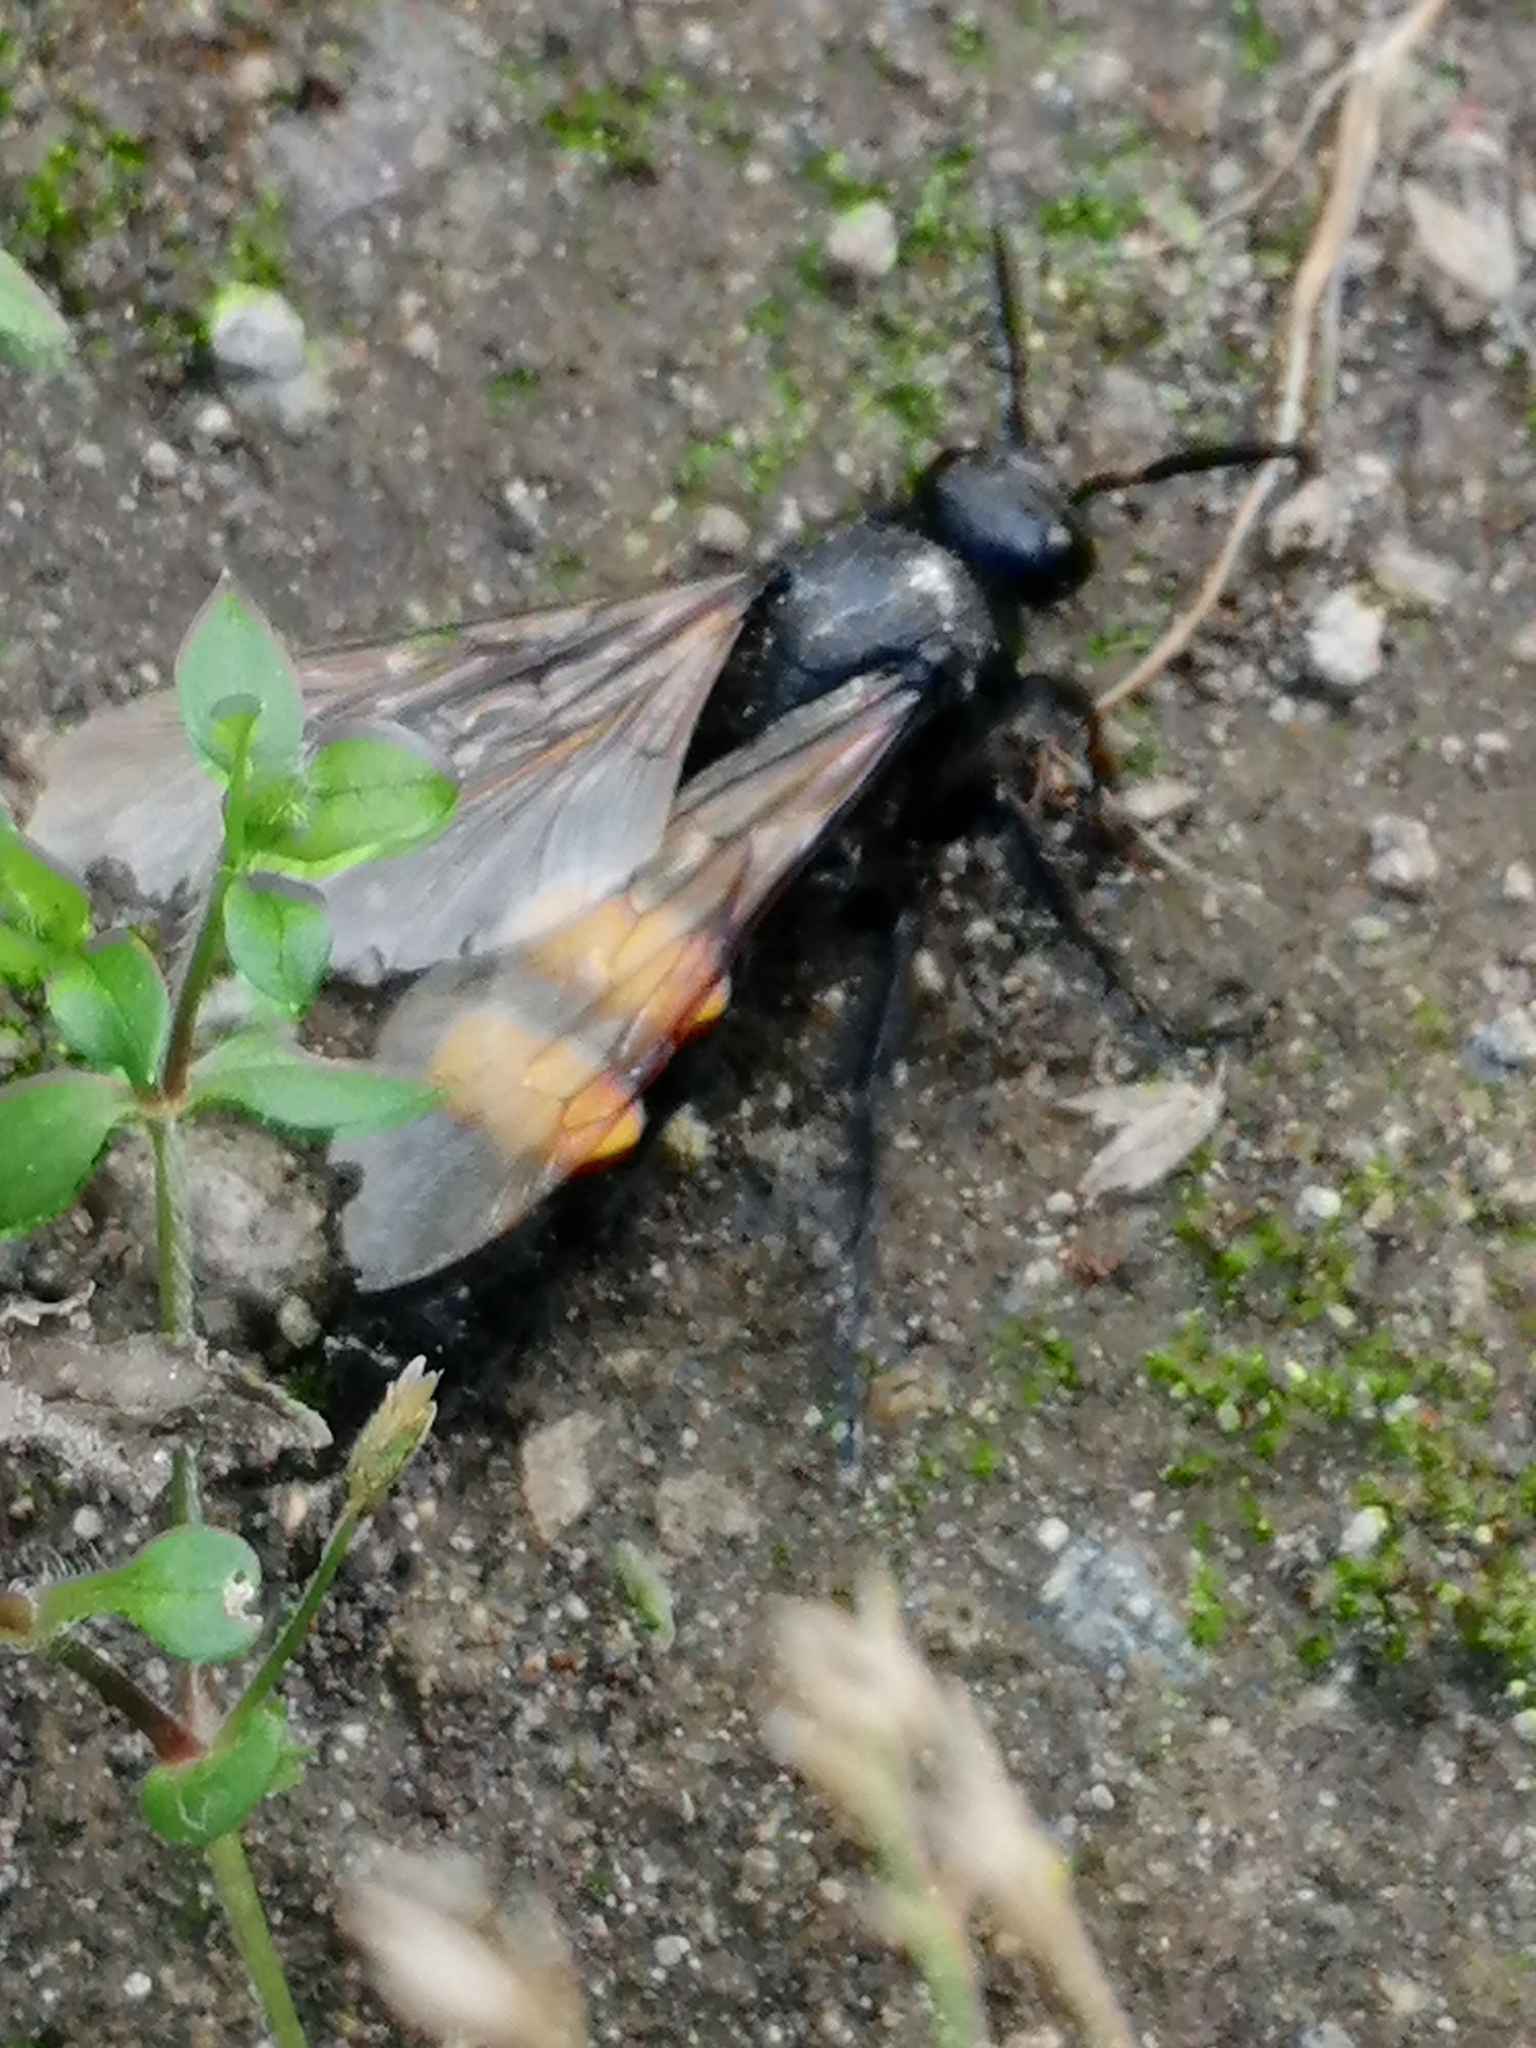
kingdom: Animalia
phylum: Arthropoda
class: Insecta
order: Hymenoptera
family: Scoliidae
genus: Pygodasis
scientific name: Pygodasis ephippium
